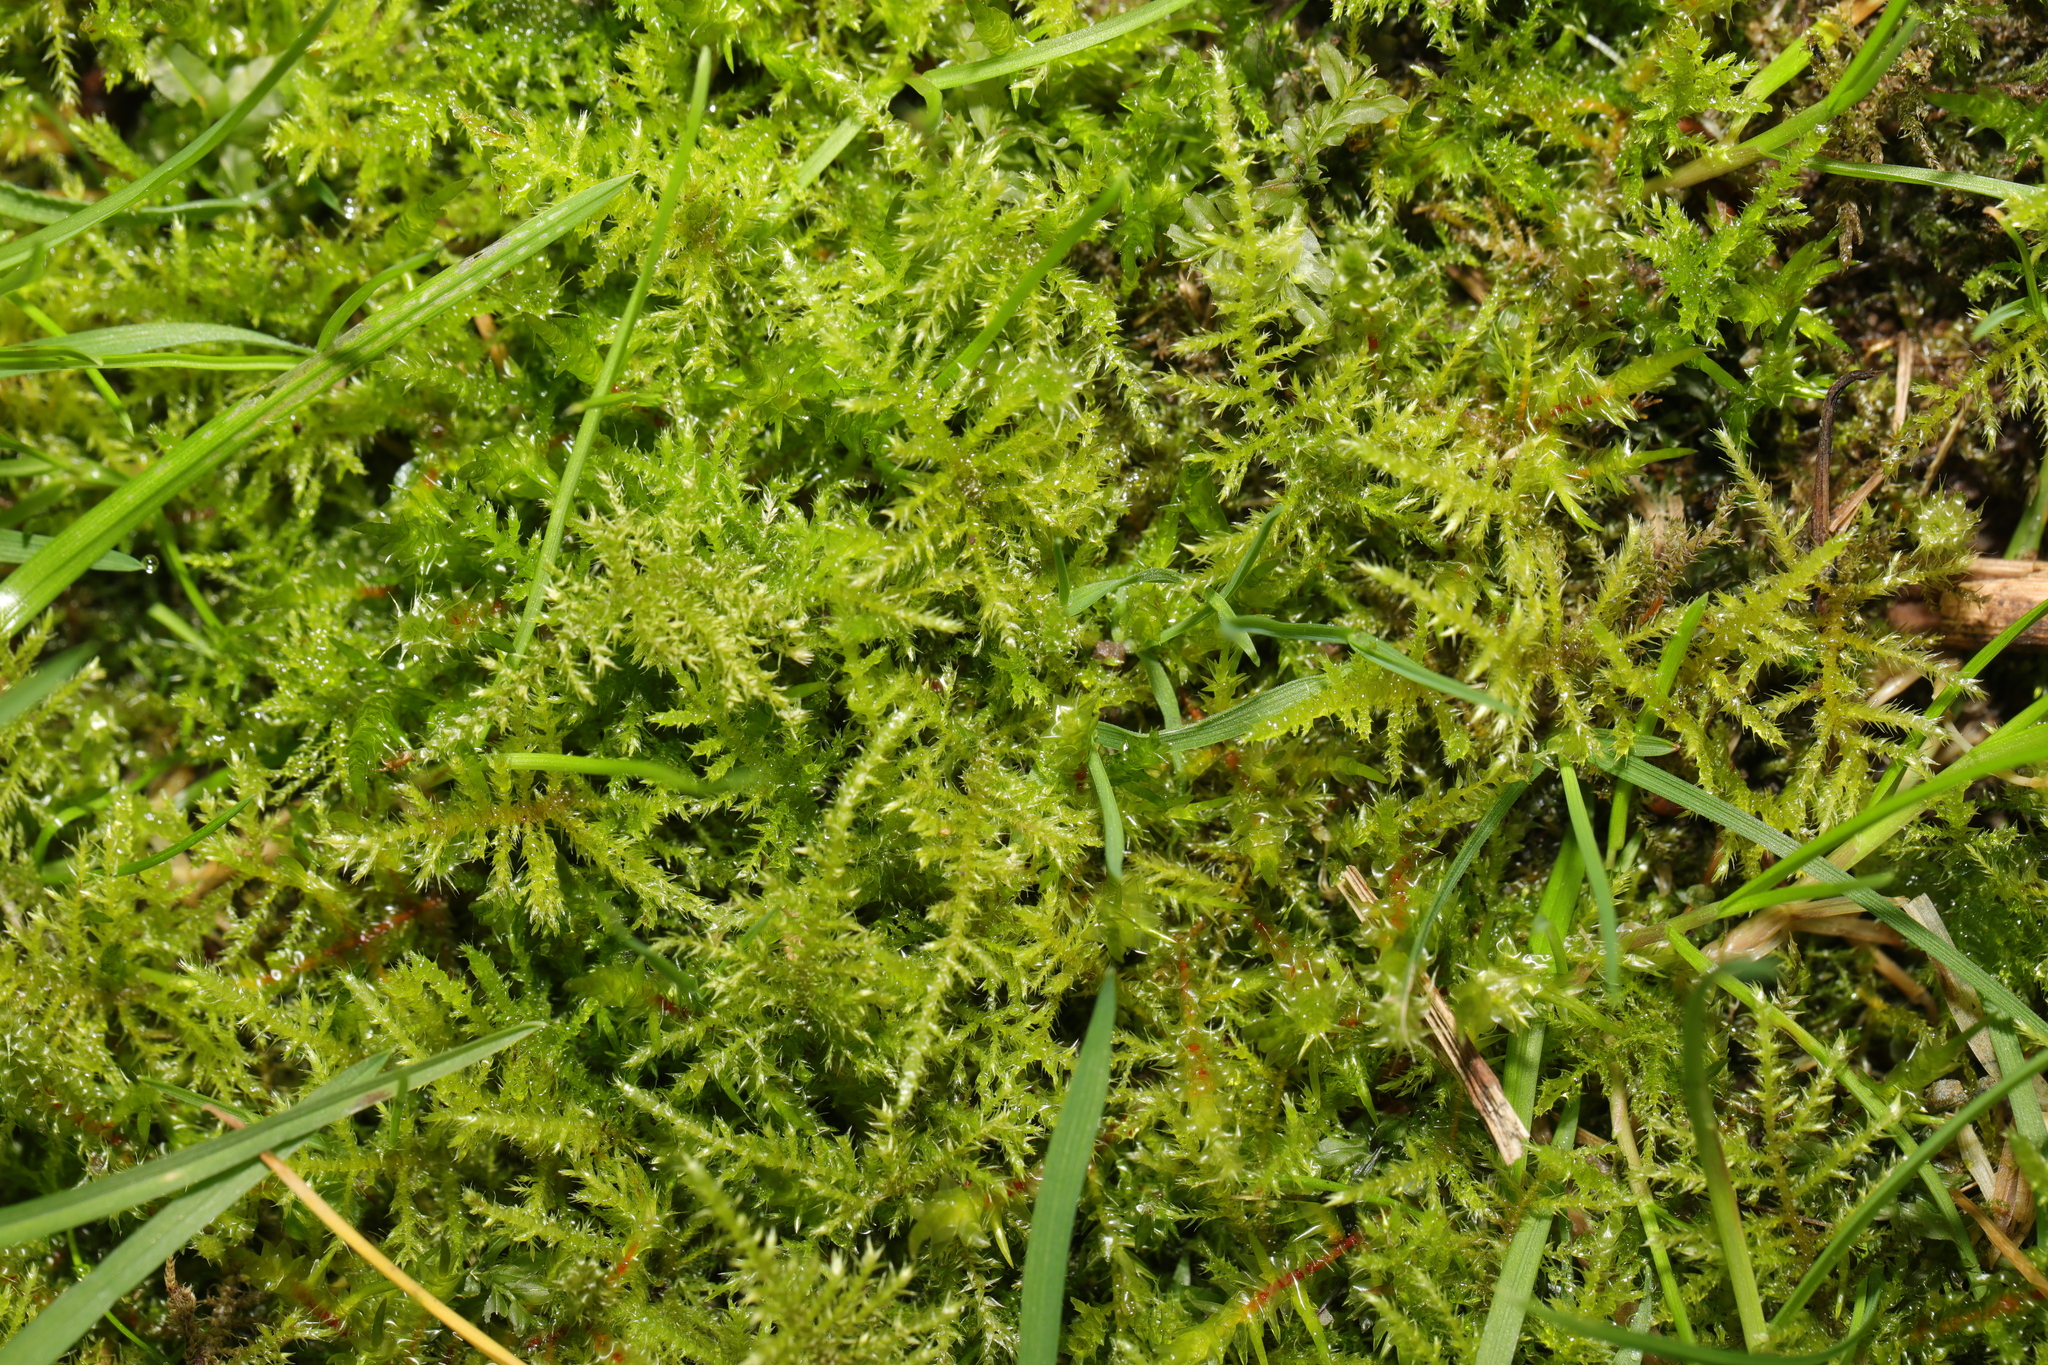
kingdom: Plantae
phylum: Bryophyta
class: Bryopsida
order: Hypnales
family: Brachytheciaceae
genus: Kindbergia
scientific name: Kindbergia praelonga
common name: Slender beaked moss
